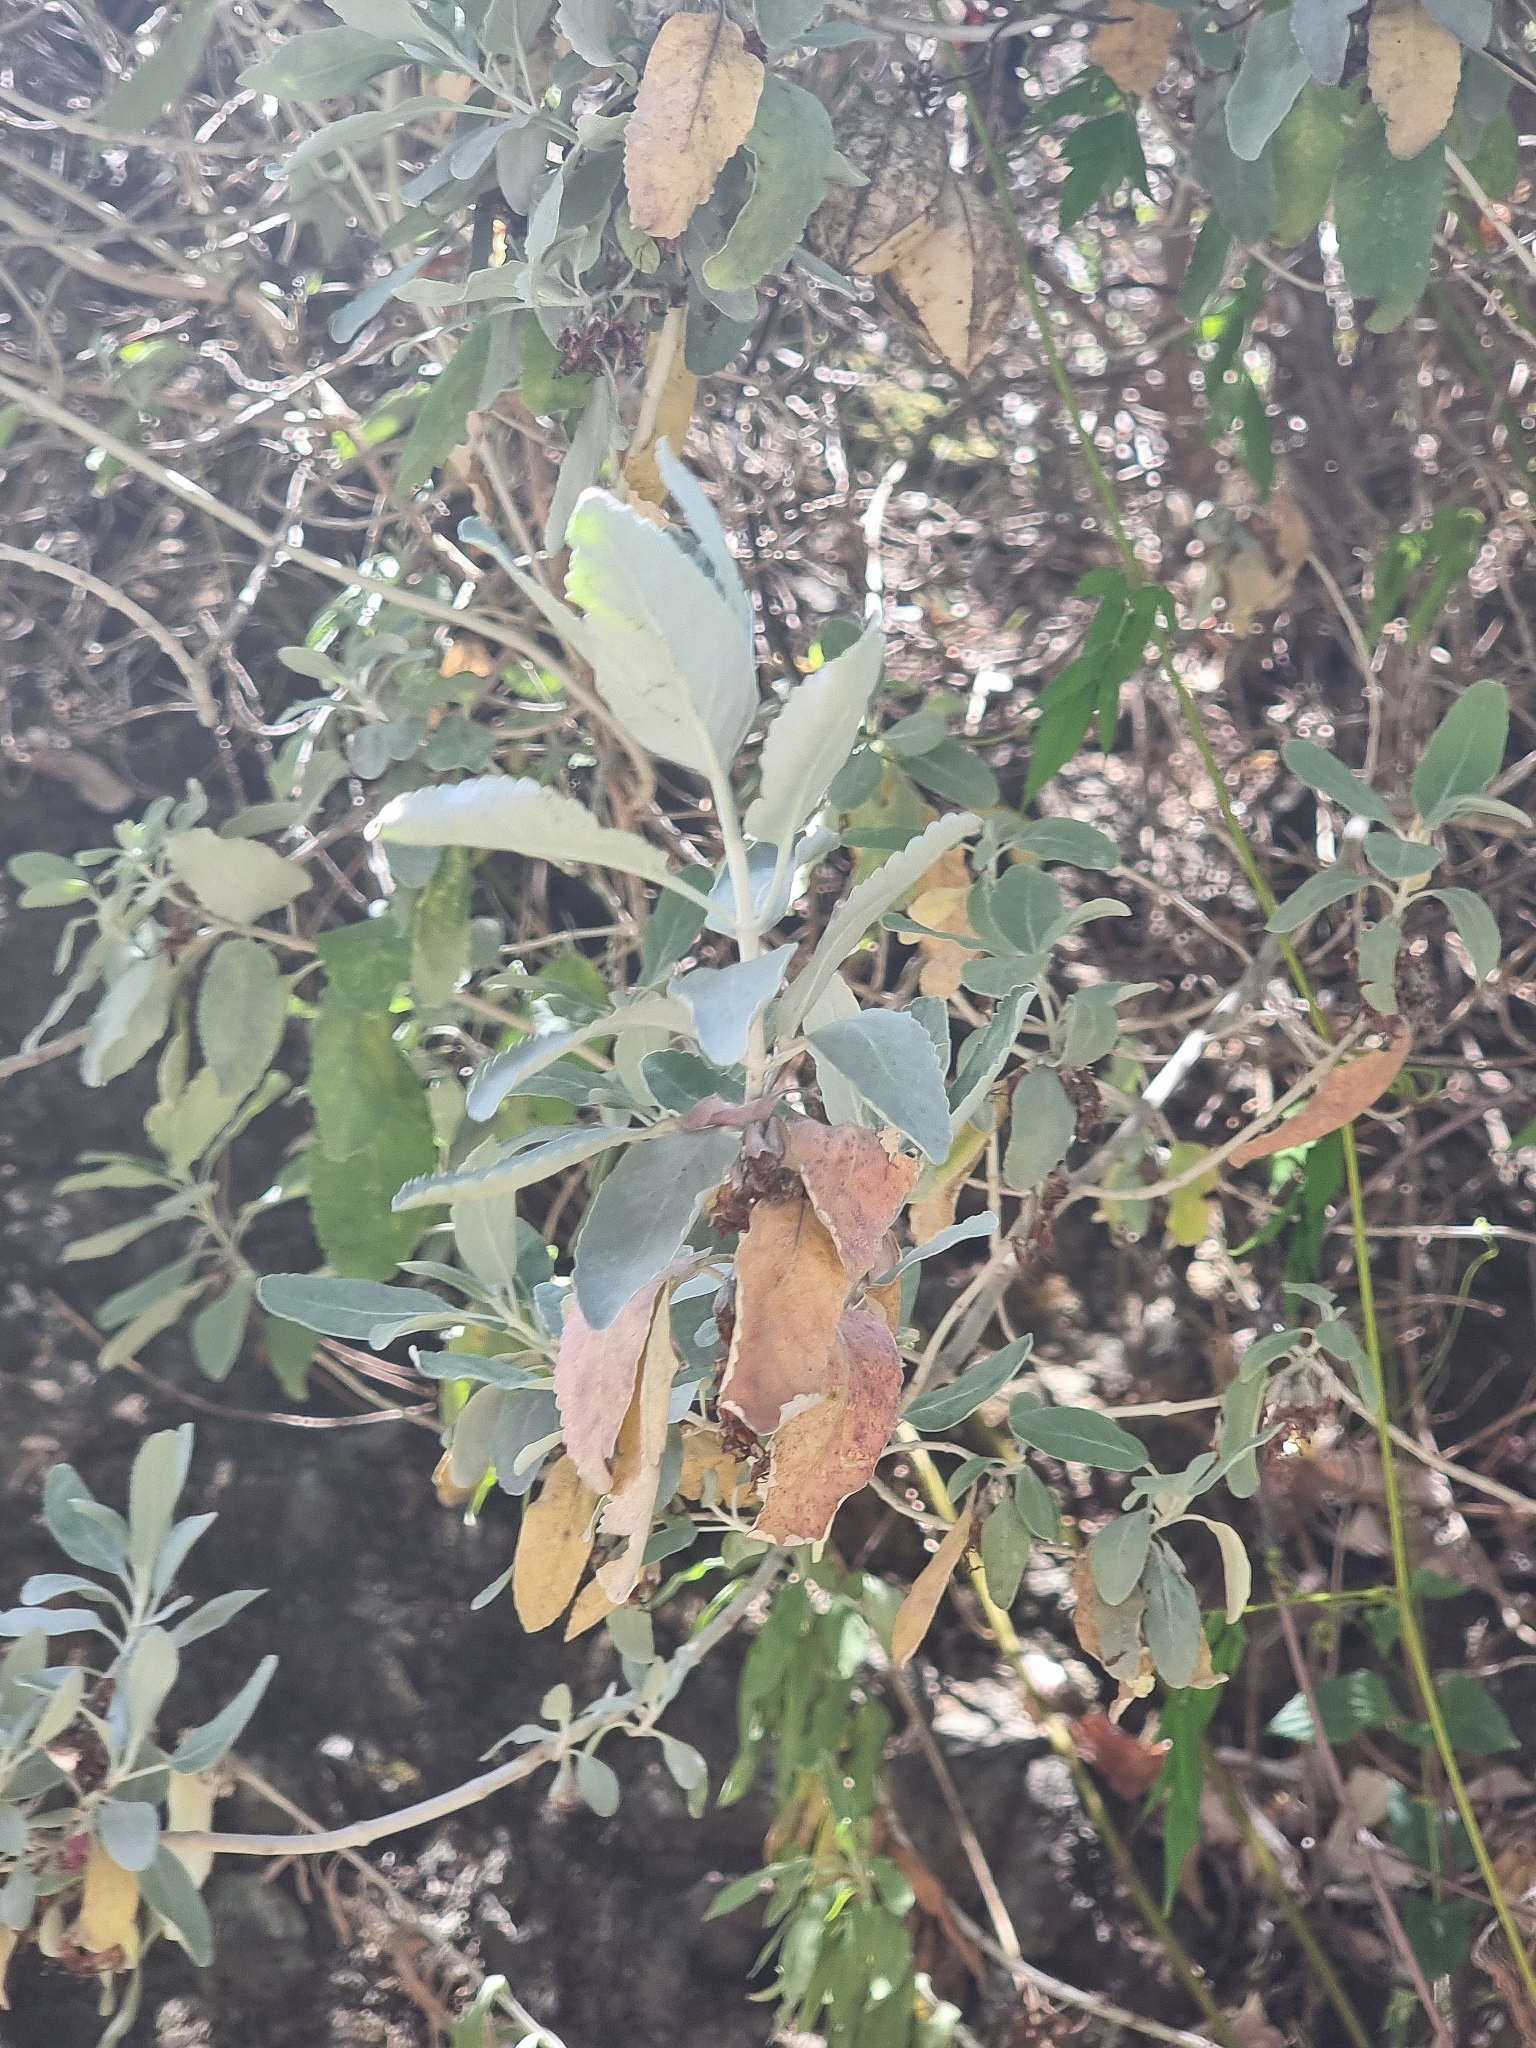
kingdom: Plantae
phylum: Tracheophyta
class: Magnoliopsida
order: Lamiales
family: Lamiaceae
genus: Teucrium
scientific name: Teucrium heterophyllum
